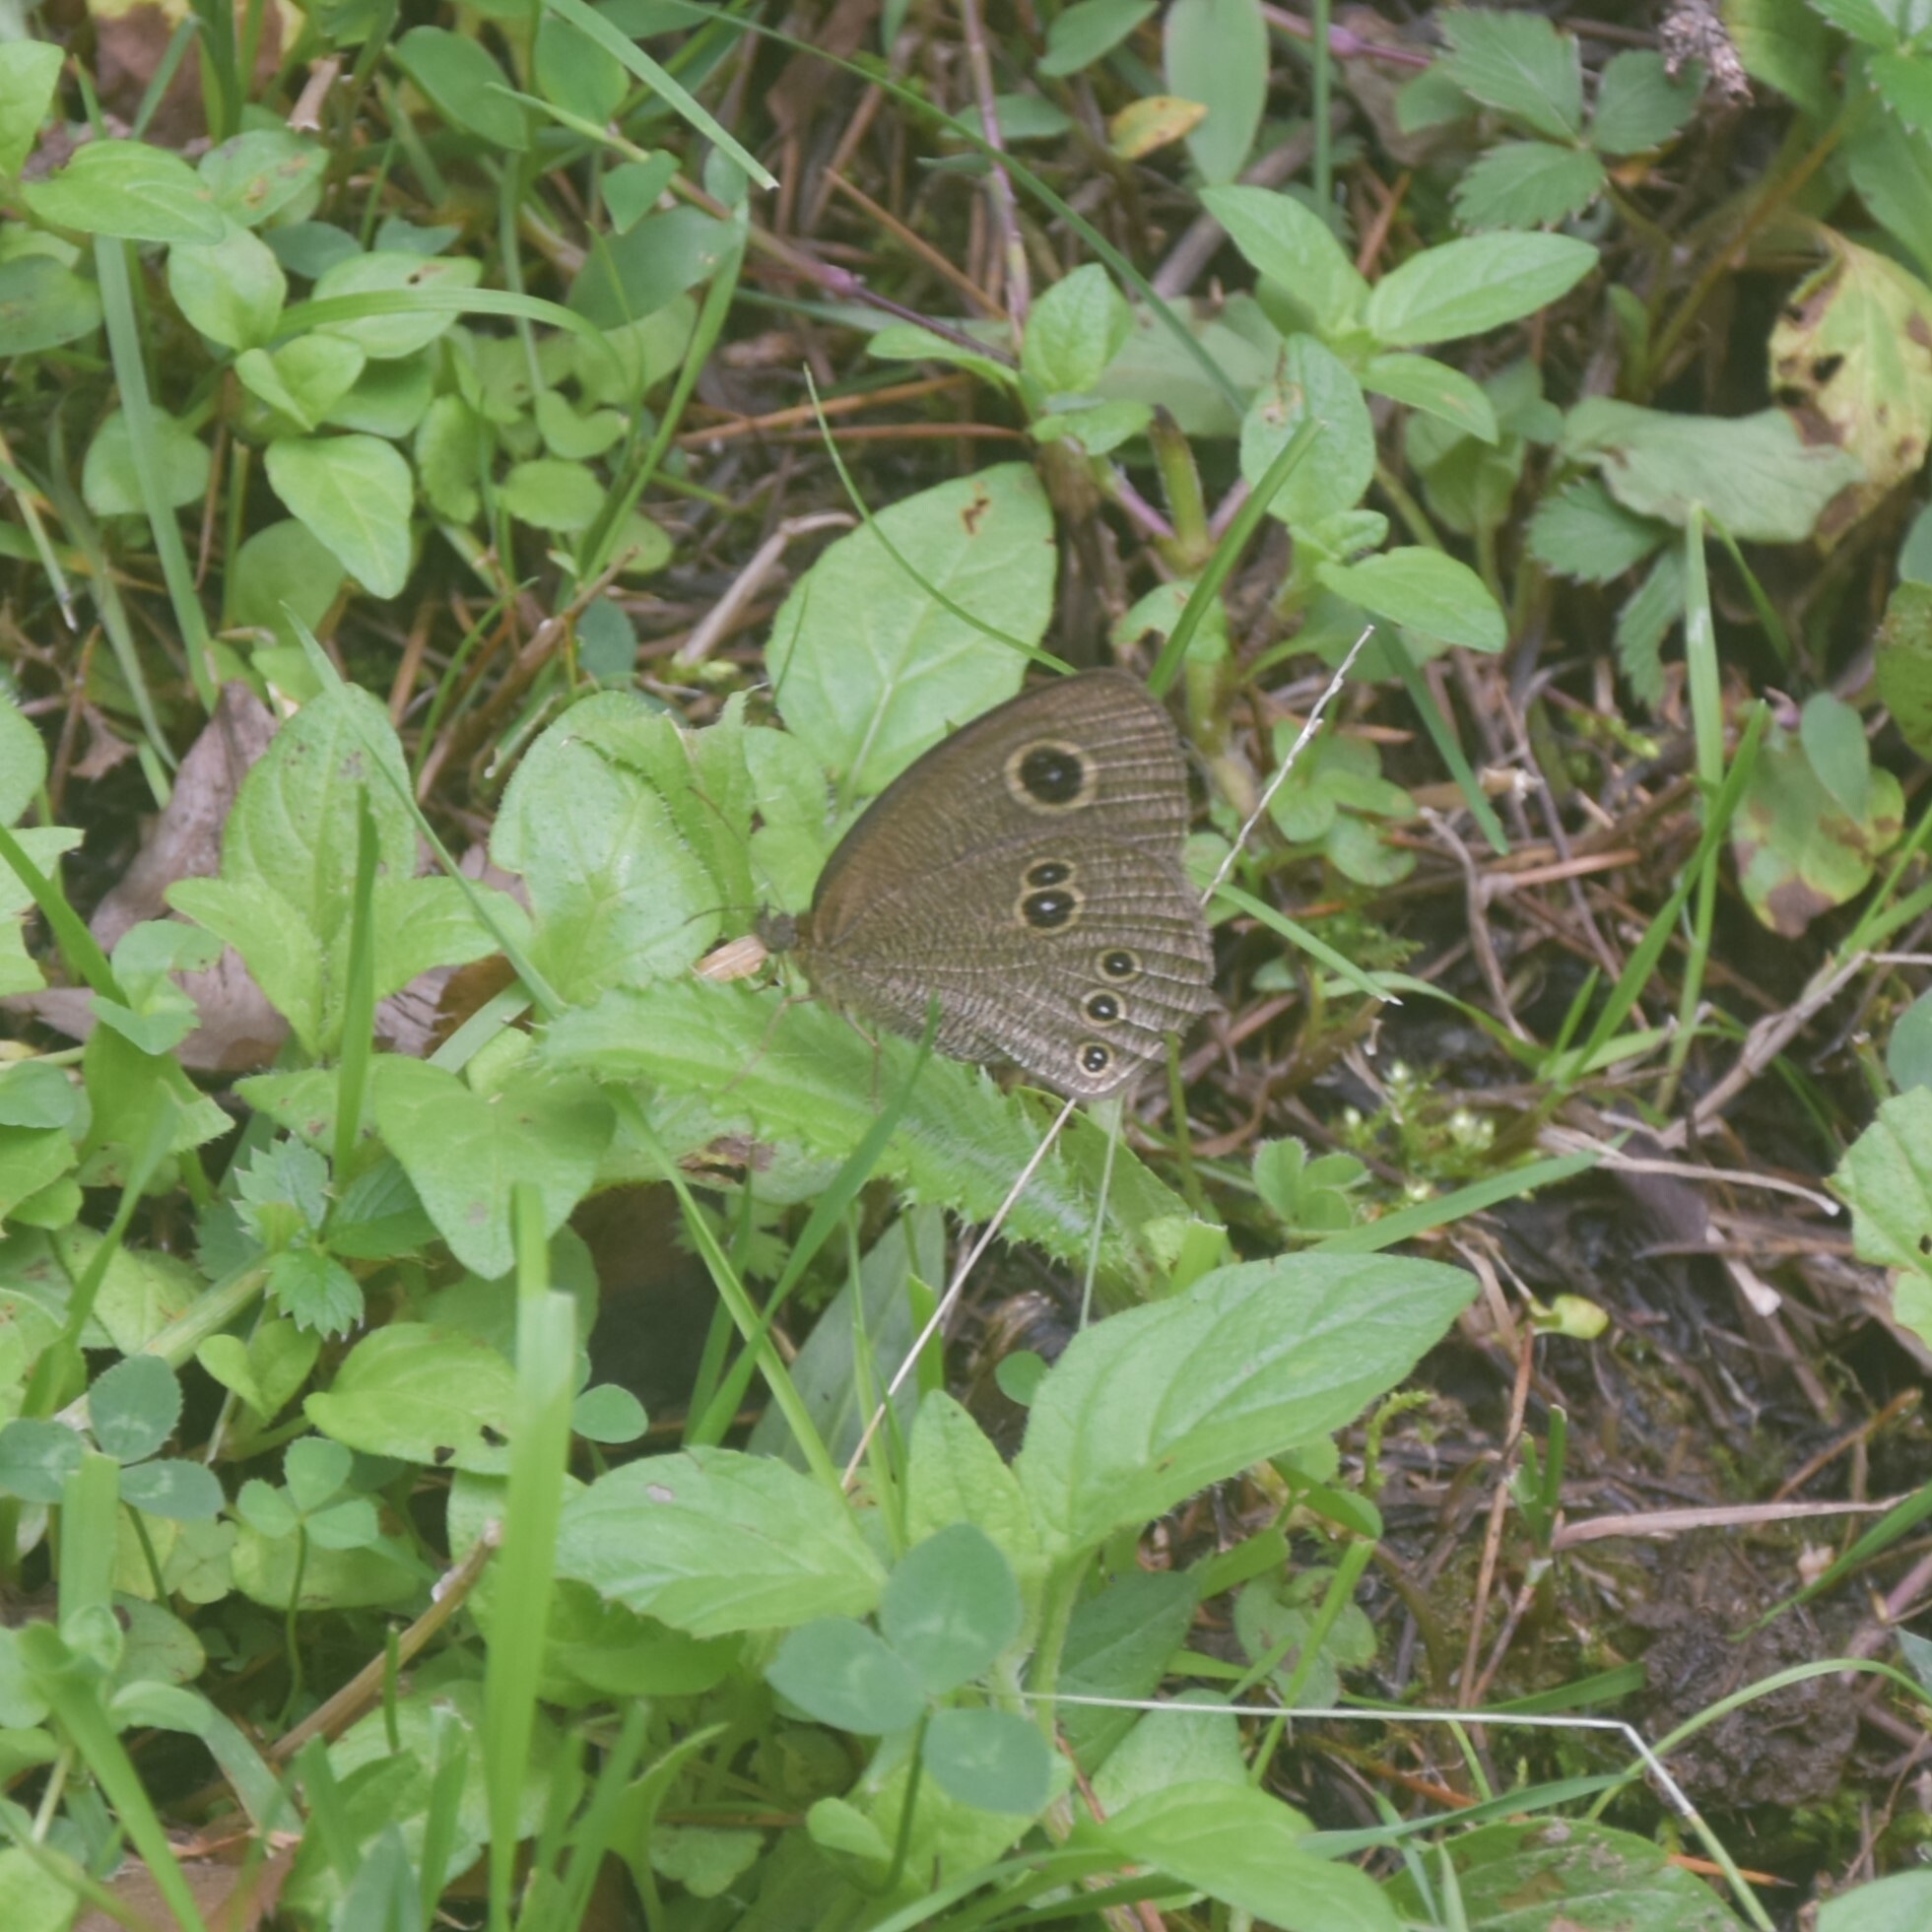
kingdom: Animalia
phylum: Arthropoda
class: Insecta
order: Lepidoptera
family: Nymphalidae
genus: Ypthima
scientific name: Ypthima nikaea
